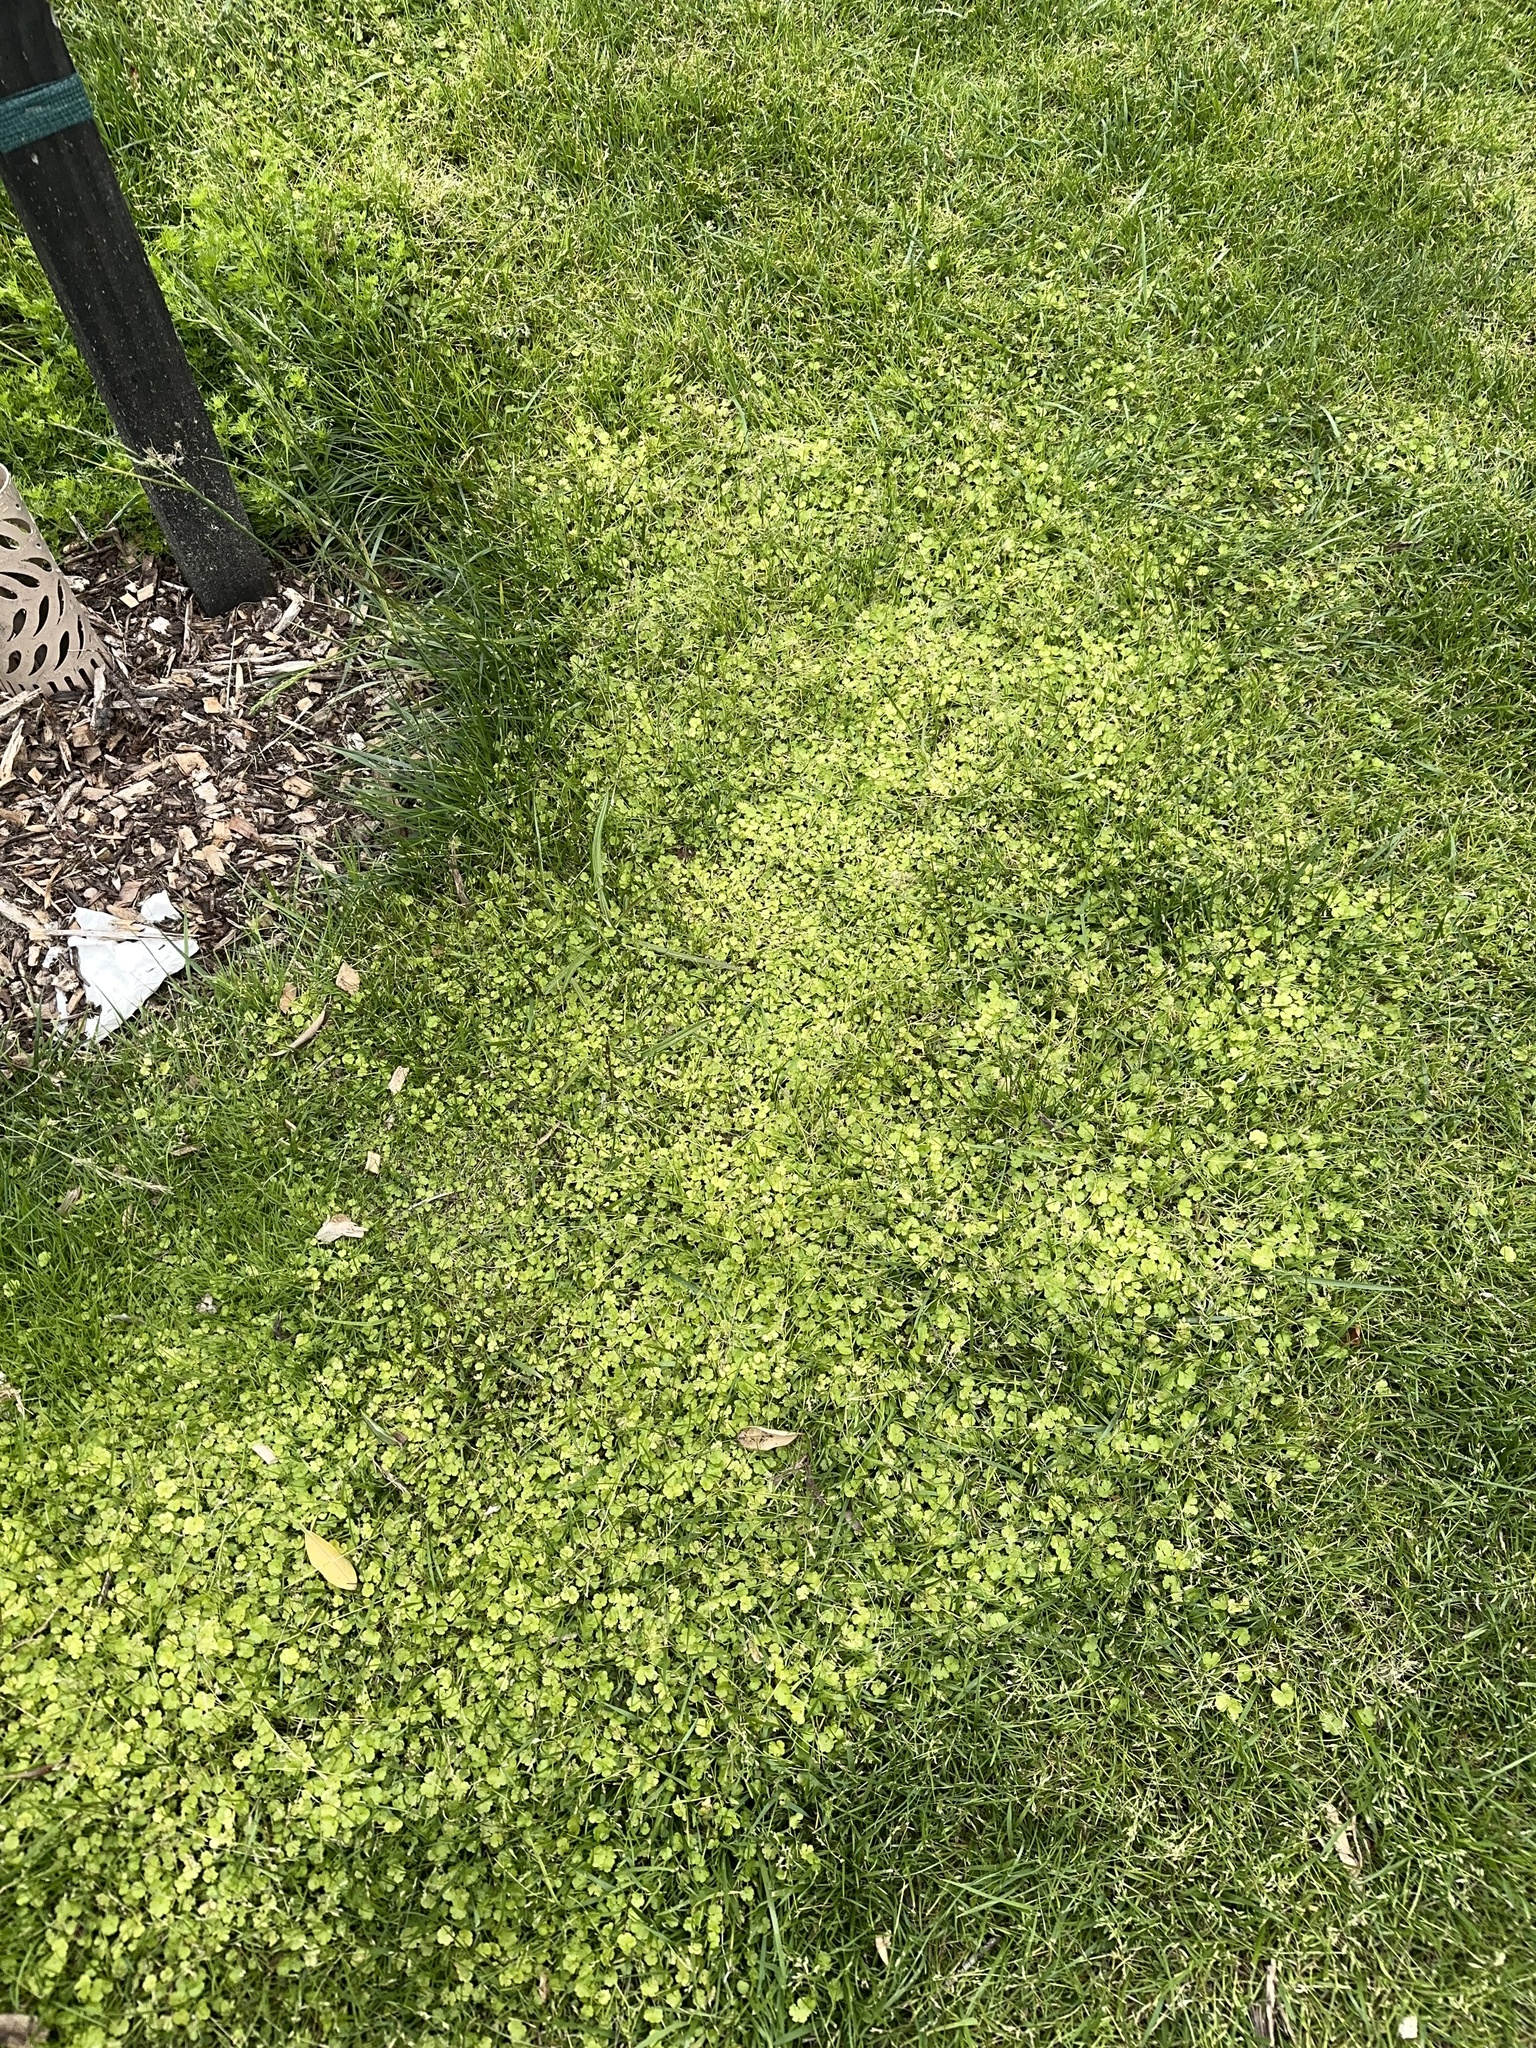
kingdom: Plantae
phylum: Tracheophyta
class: Magnoliopsida
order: Apiales
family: Araliaceae
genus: Hydrocotyle
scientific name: Hydrocotyle heteromeria
